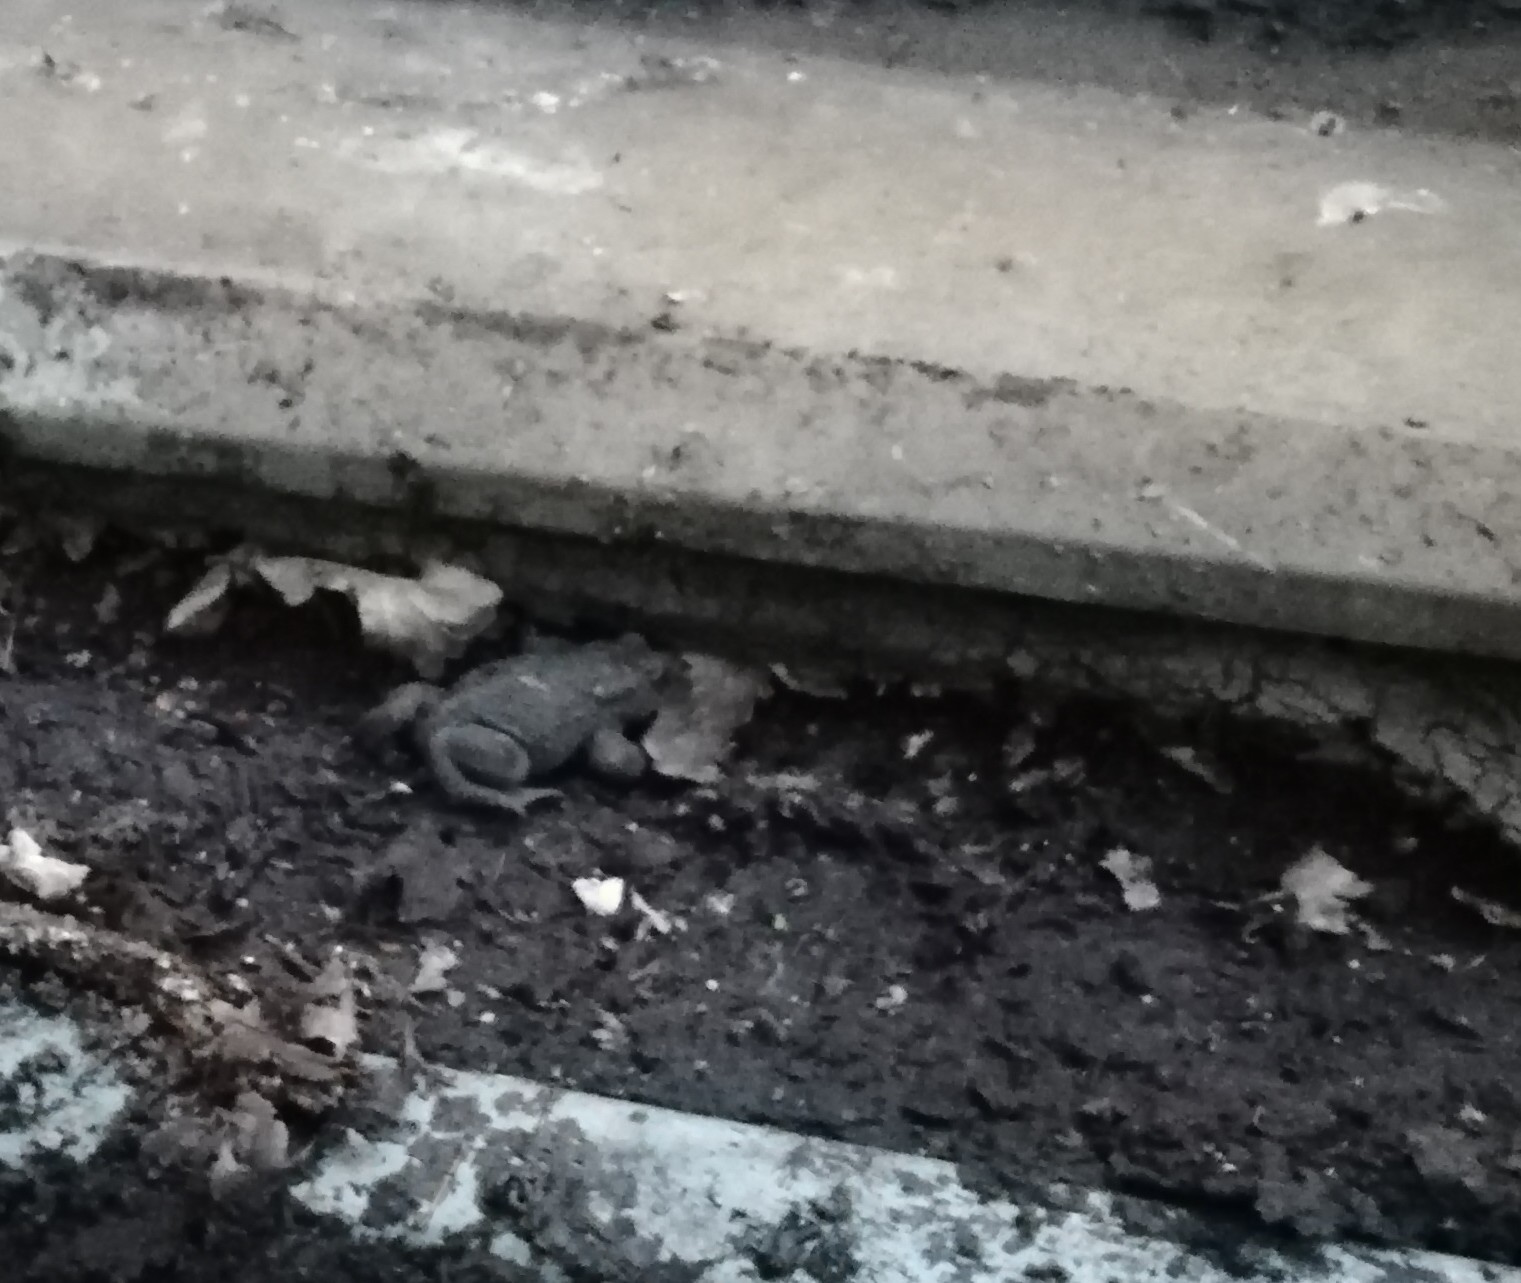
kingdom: Animalia
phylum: Chordata
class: Amphibia
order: Anura
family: Bufonidae
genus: Bufo
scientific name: Bufo bufo
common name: Common toad
